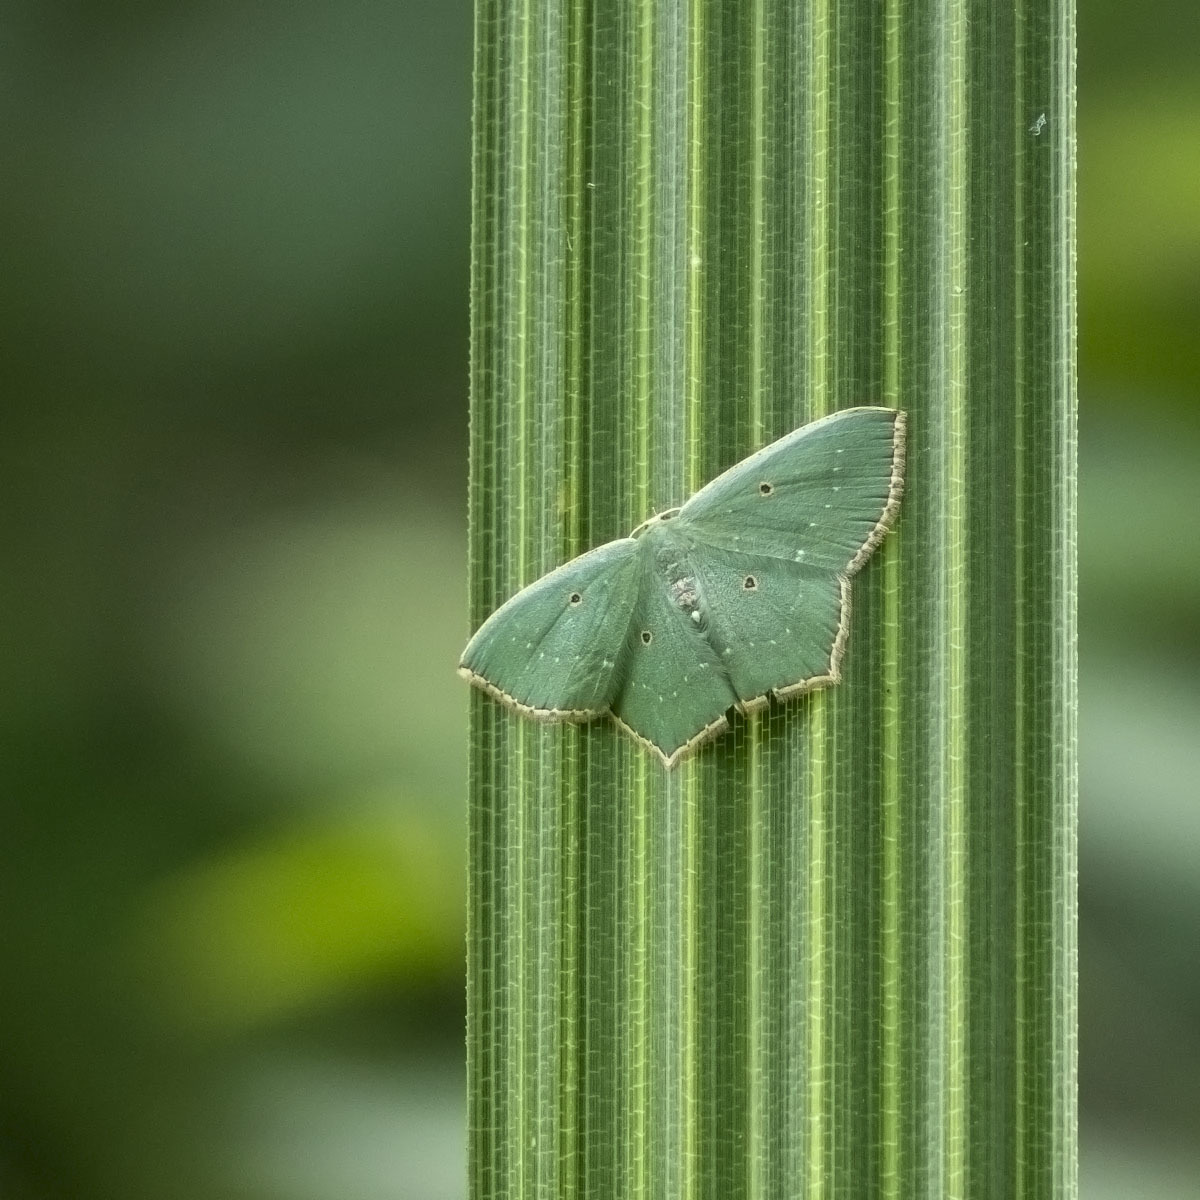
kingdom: Animalia
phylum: Arthropoda
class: Insecta
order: Lepidoptera
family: Geometridae
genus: Cyclothea
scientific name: Cyclothea disjuncta
